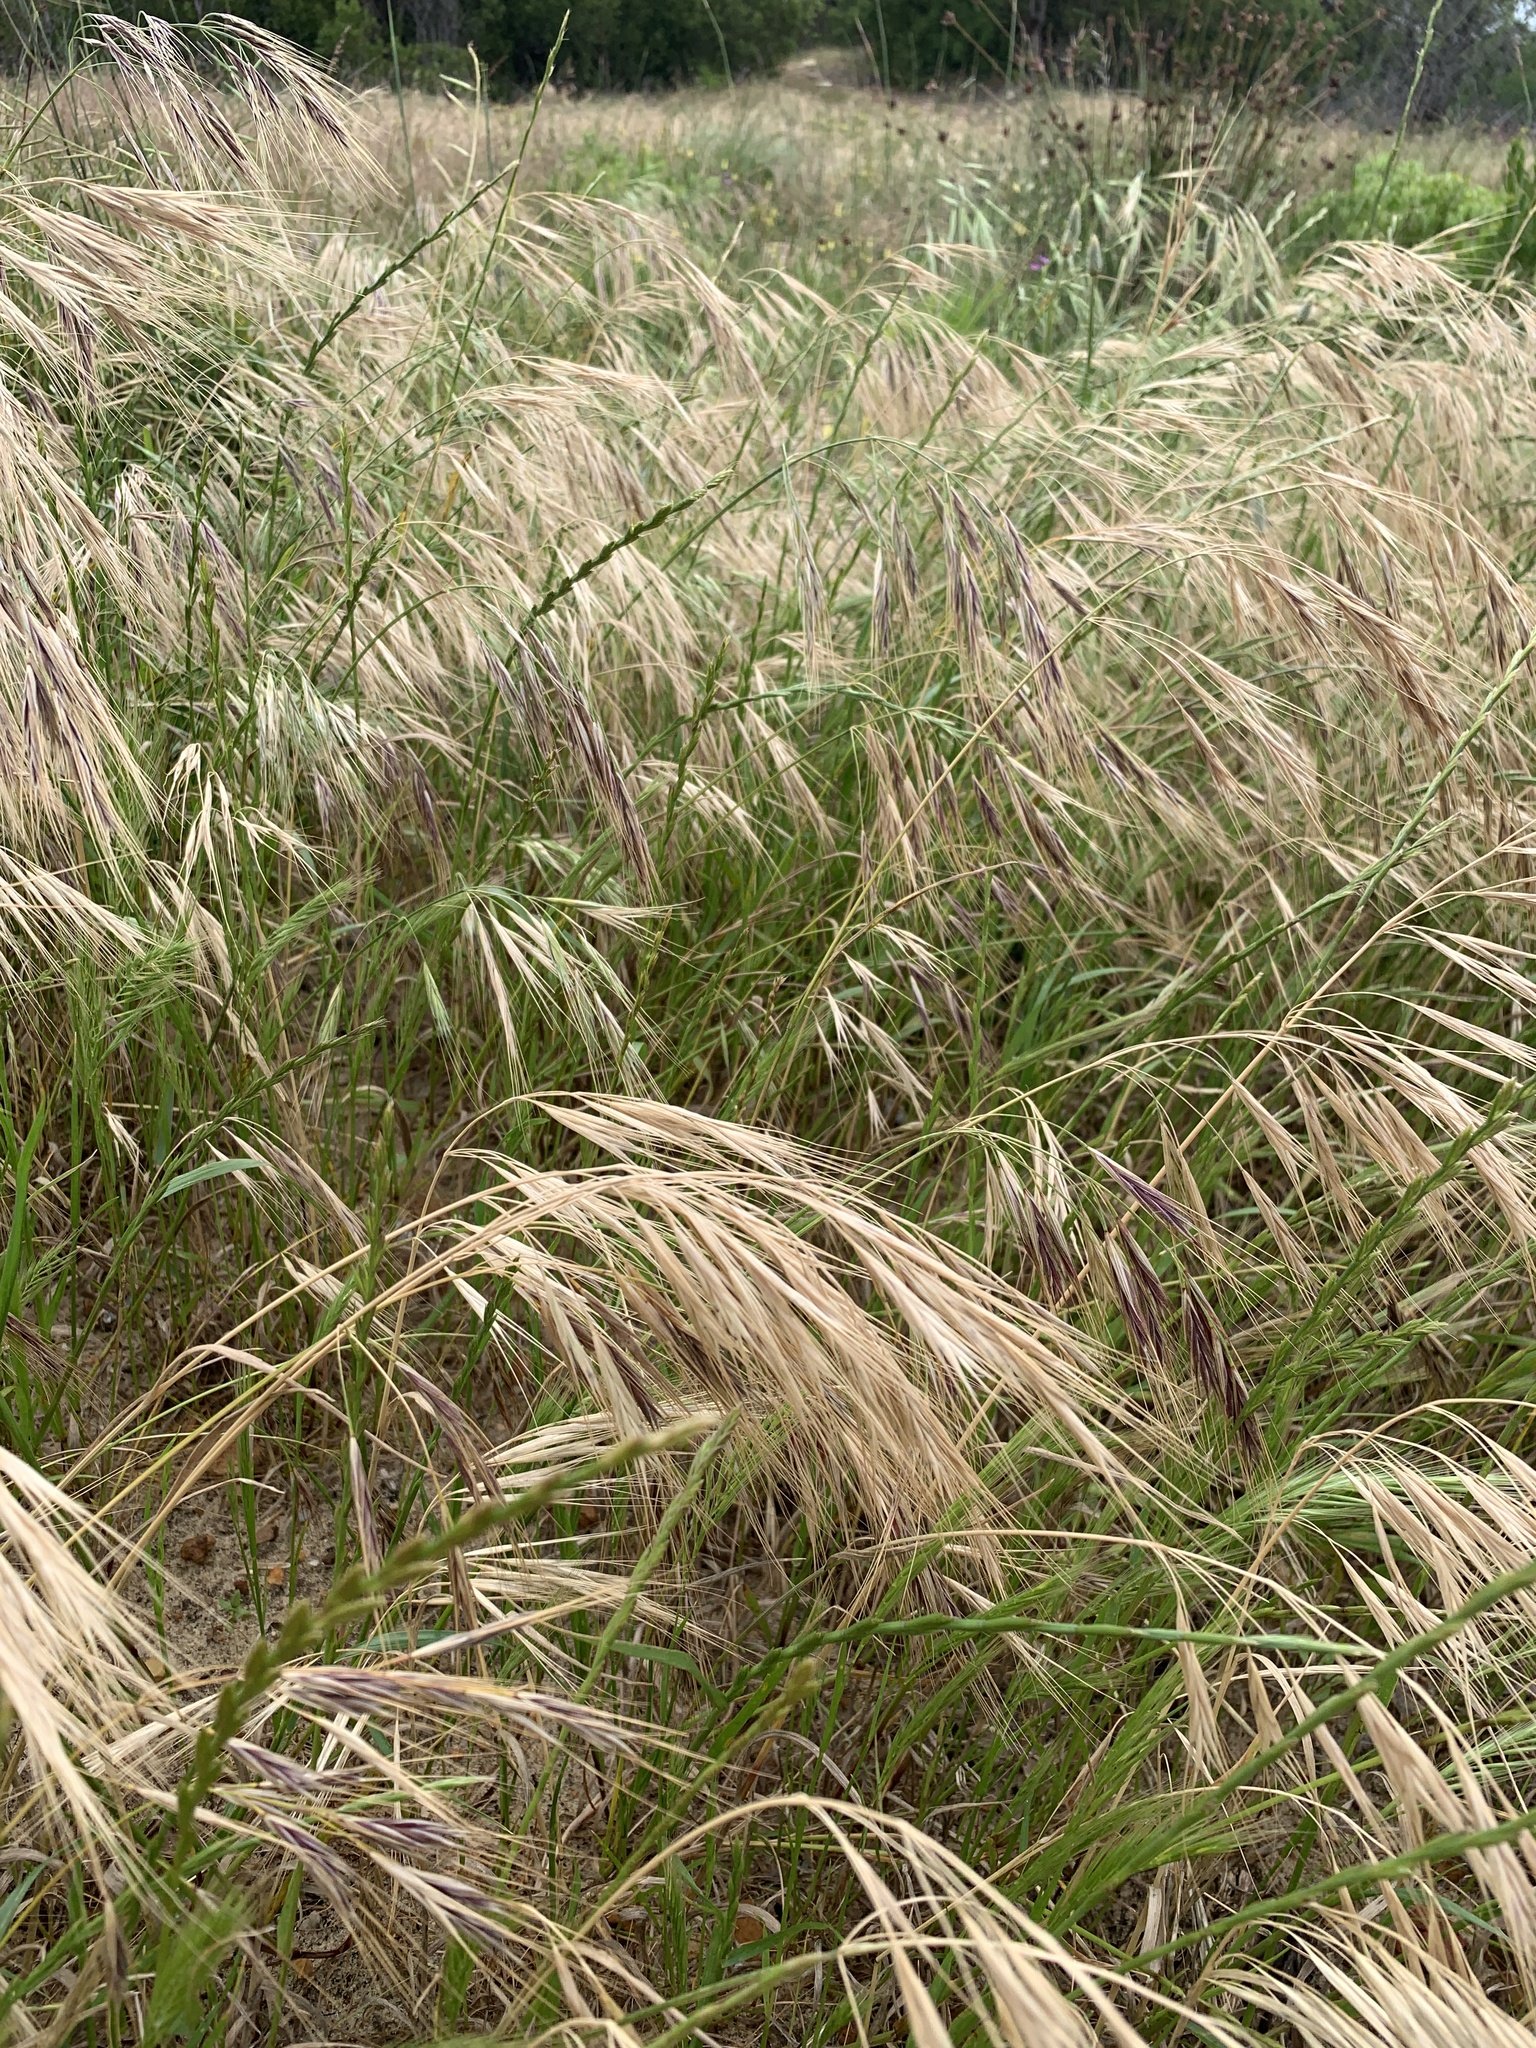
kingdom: Plantae
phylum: Tracheophyta
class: Liliopsida
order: Poales
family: Poaceae
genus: Bromus
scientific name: Bromus diandrus
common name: Ripgut brome
